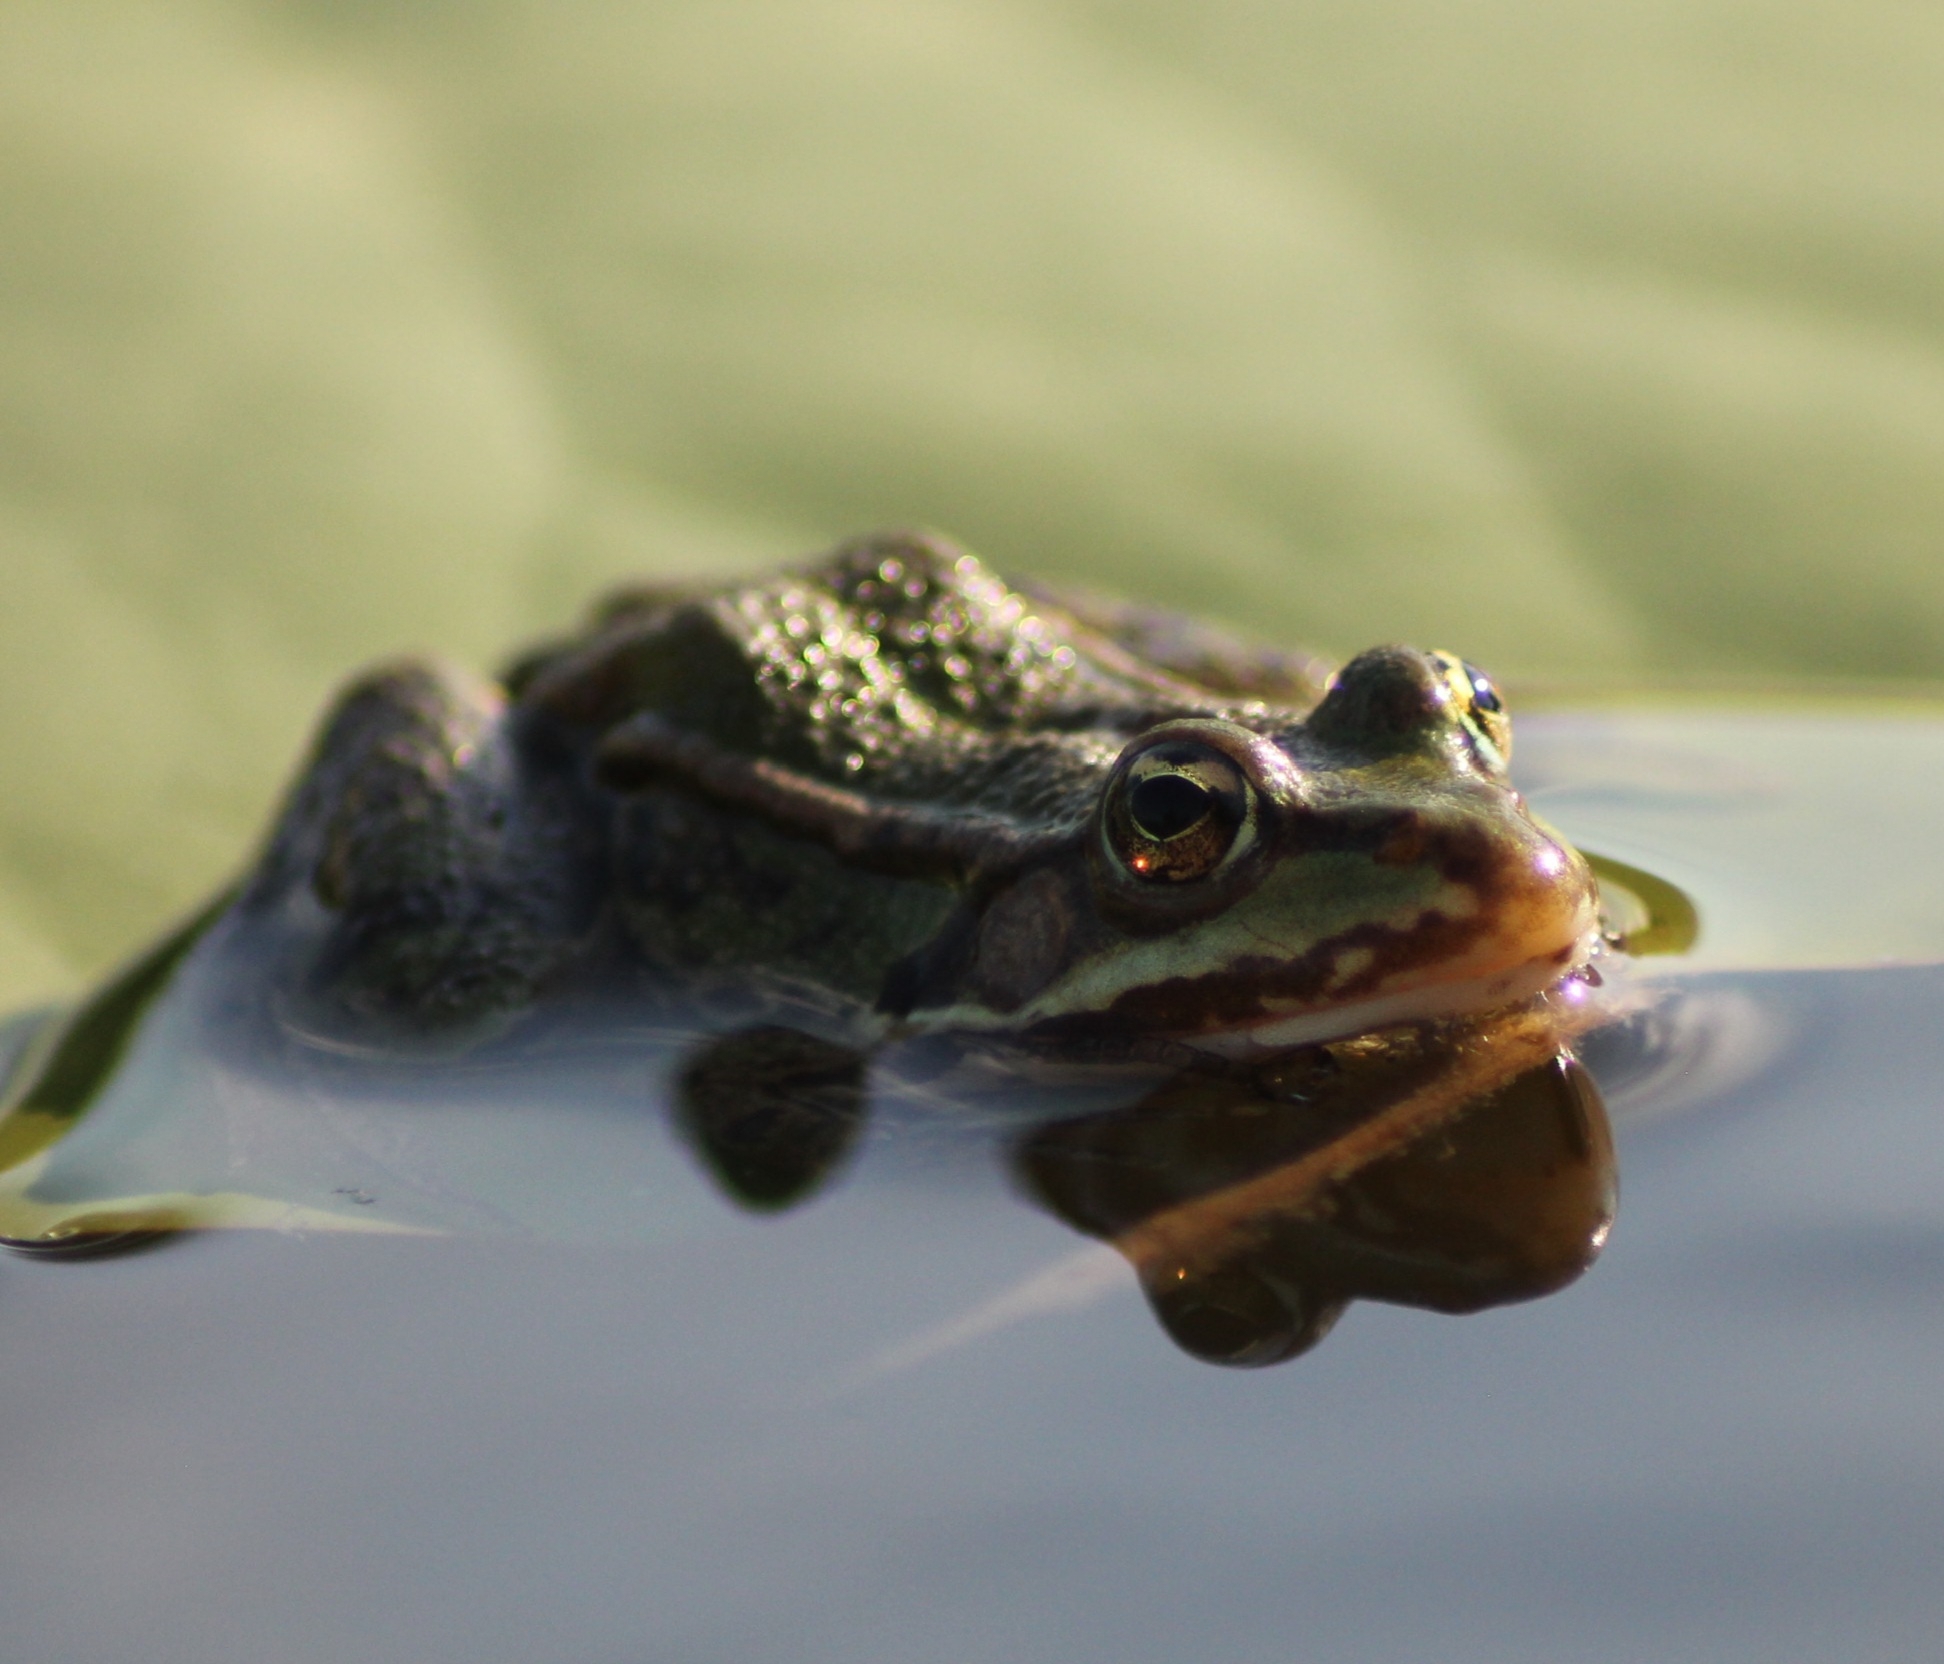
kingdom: Animalia
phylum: Chordata
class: Amphibia
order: Anura
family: Ranidae
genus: Pelophylax
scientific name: Pelophylax
